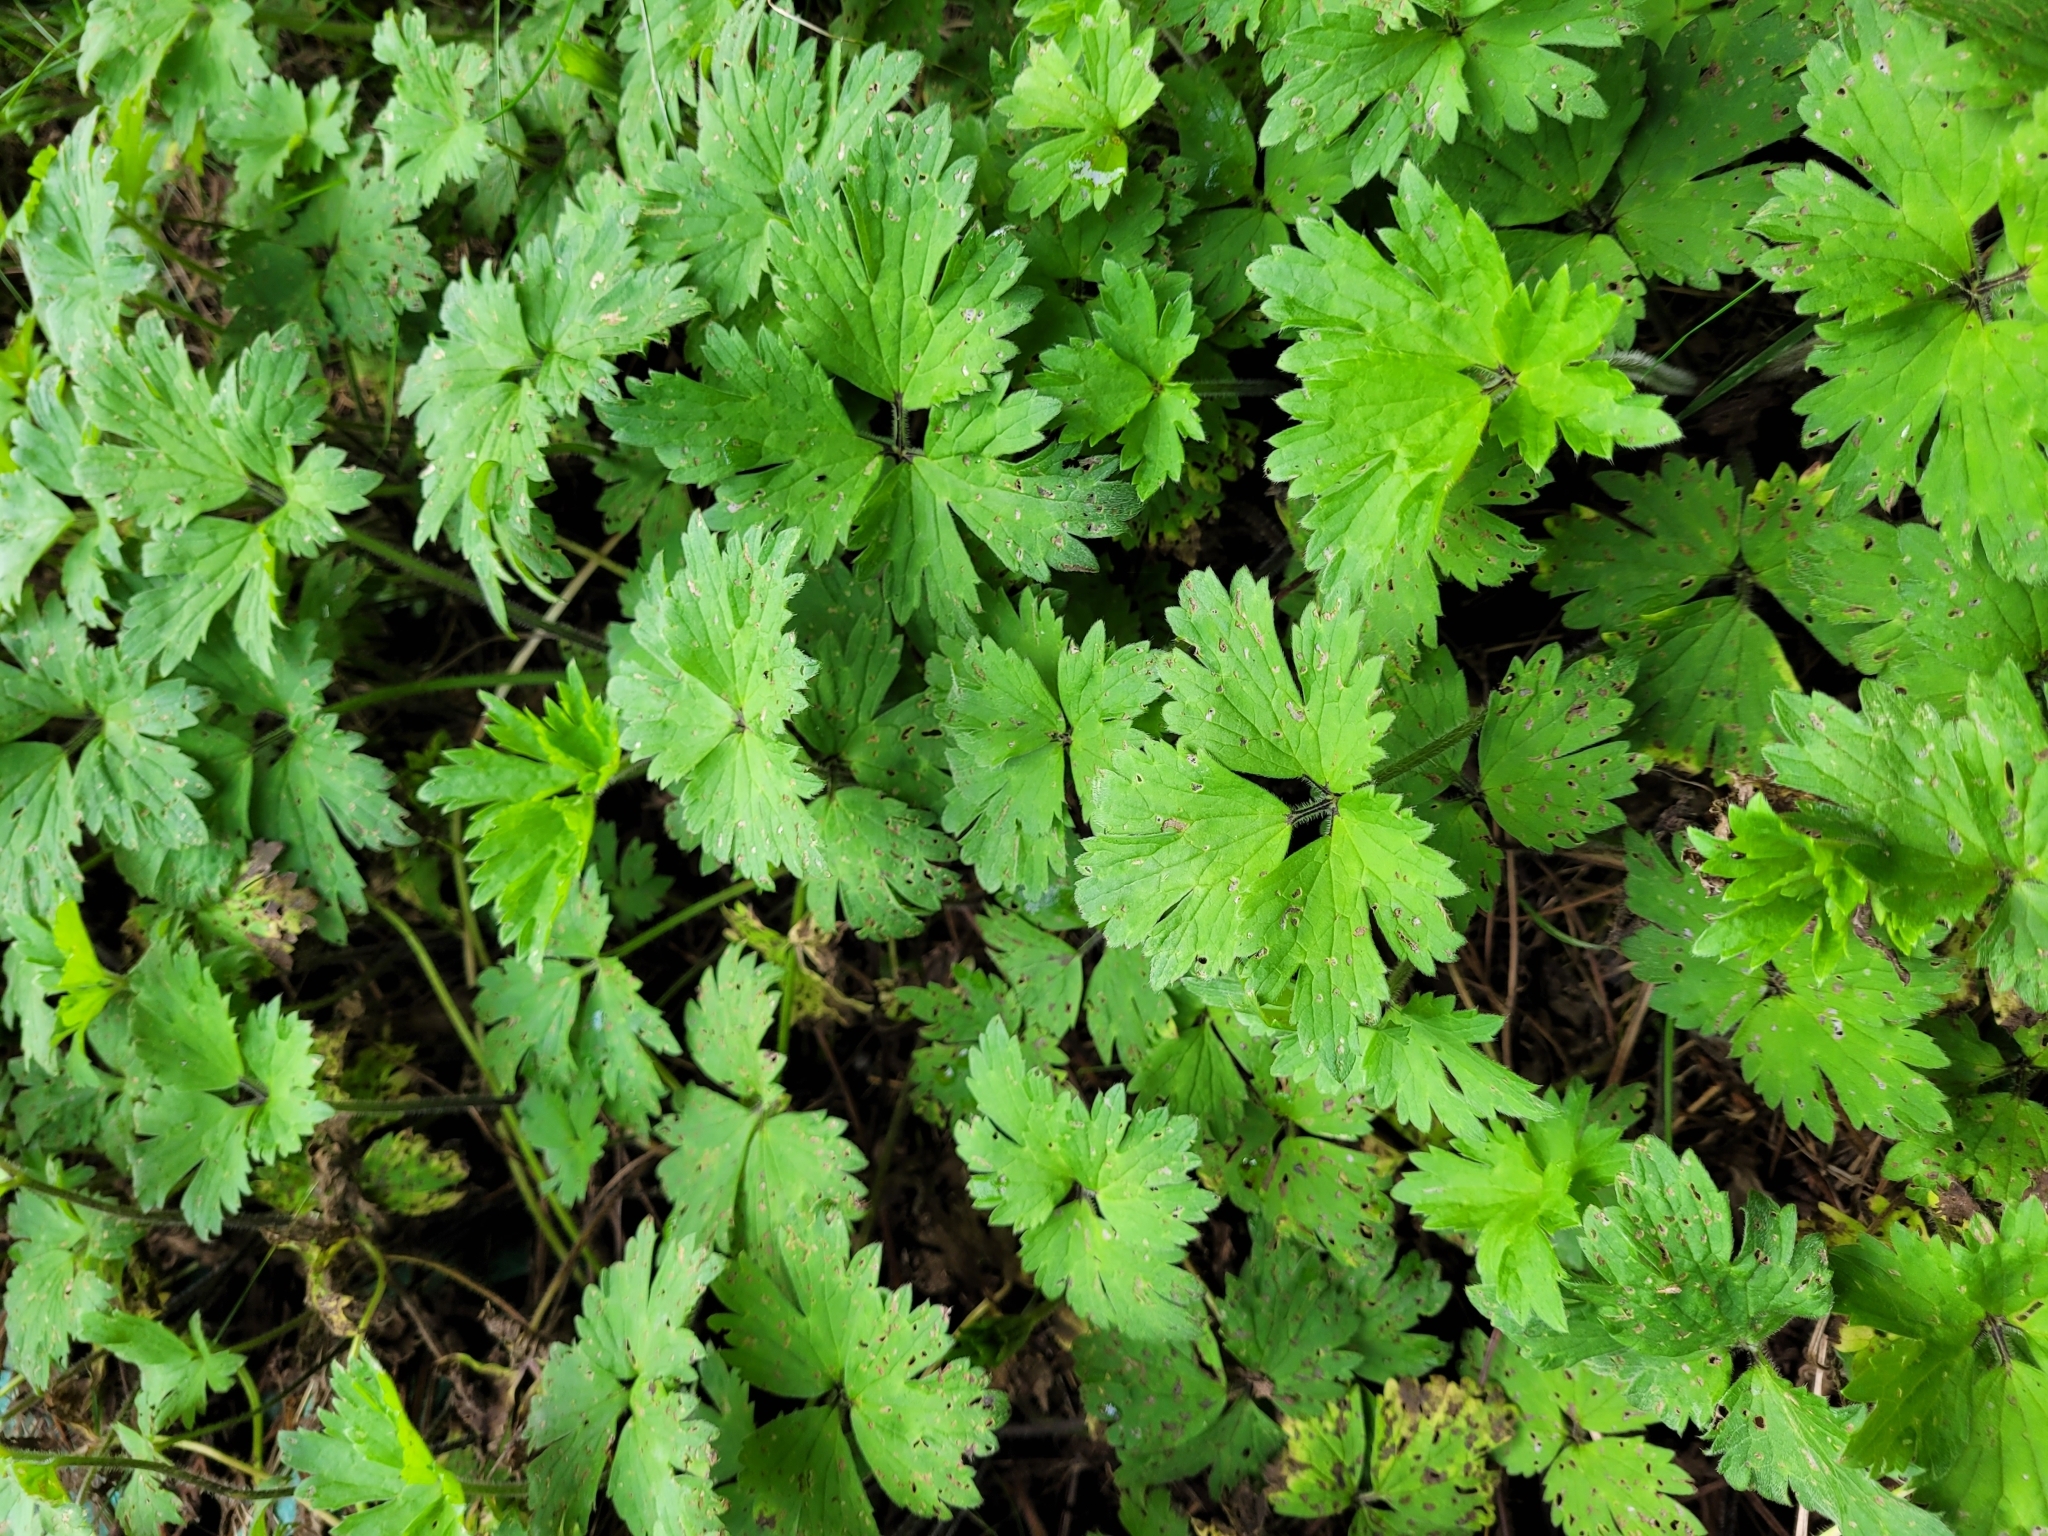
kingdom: Plantae
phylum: Tracheophyta
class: Magnoliopsida
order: Ranunculales
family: Ranunculaceae
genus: Ranunculus
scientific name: Ranunculus repens
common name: Creeping buttercup
